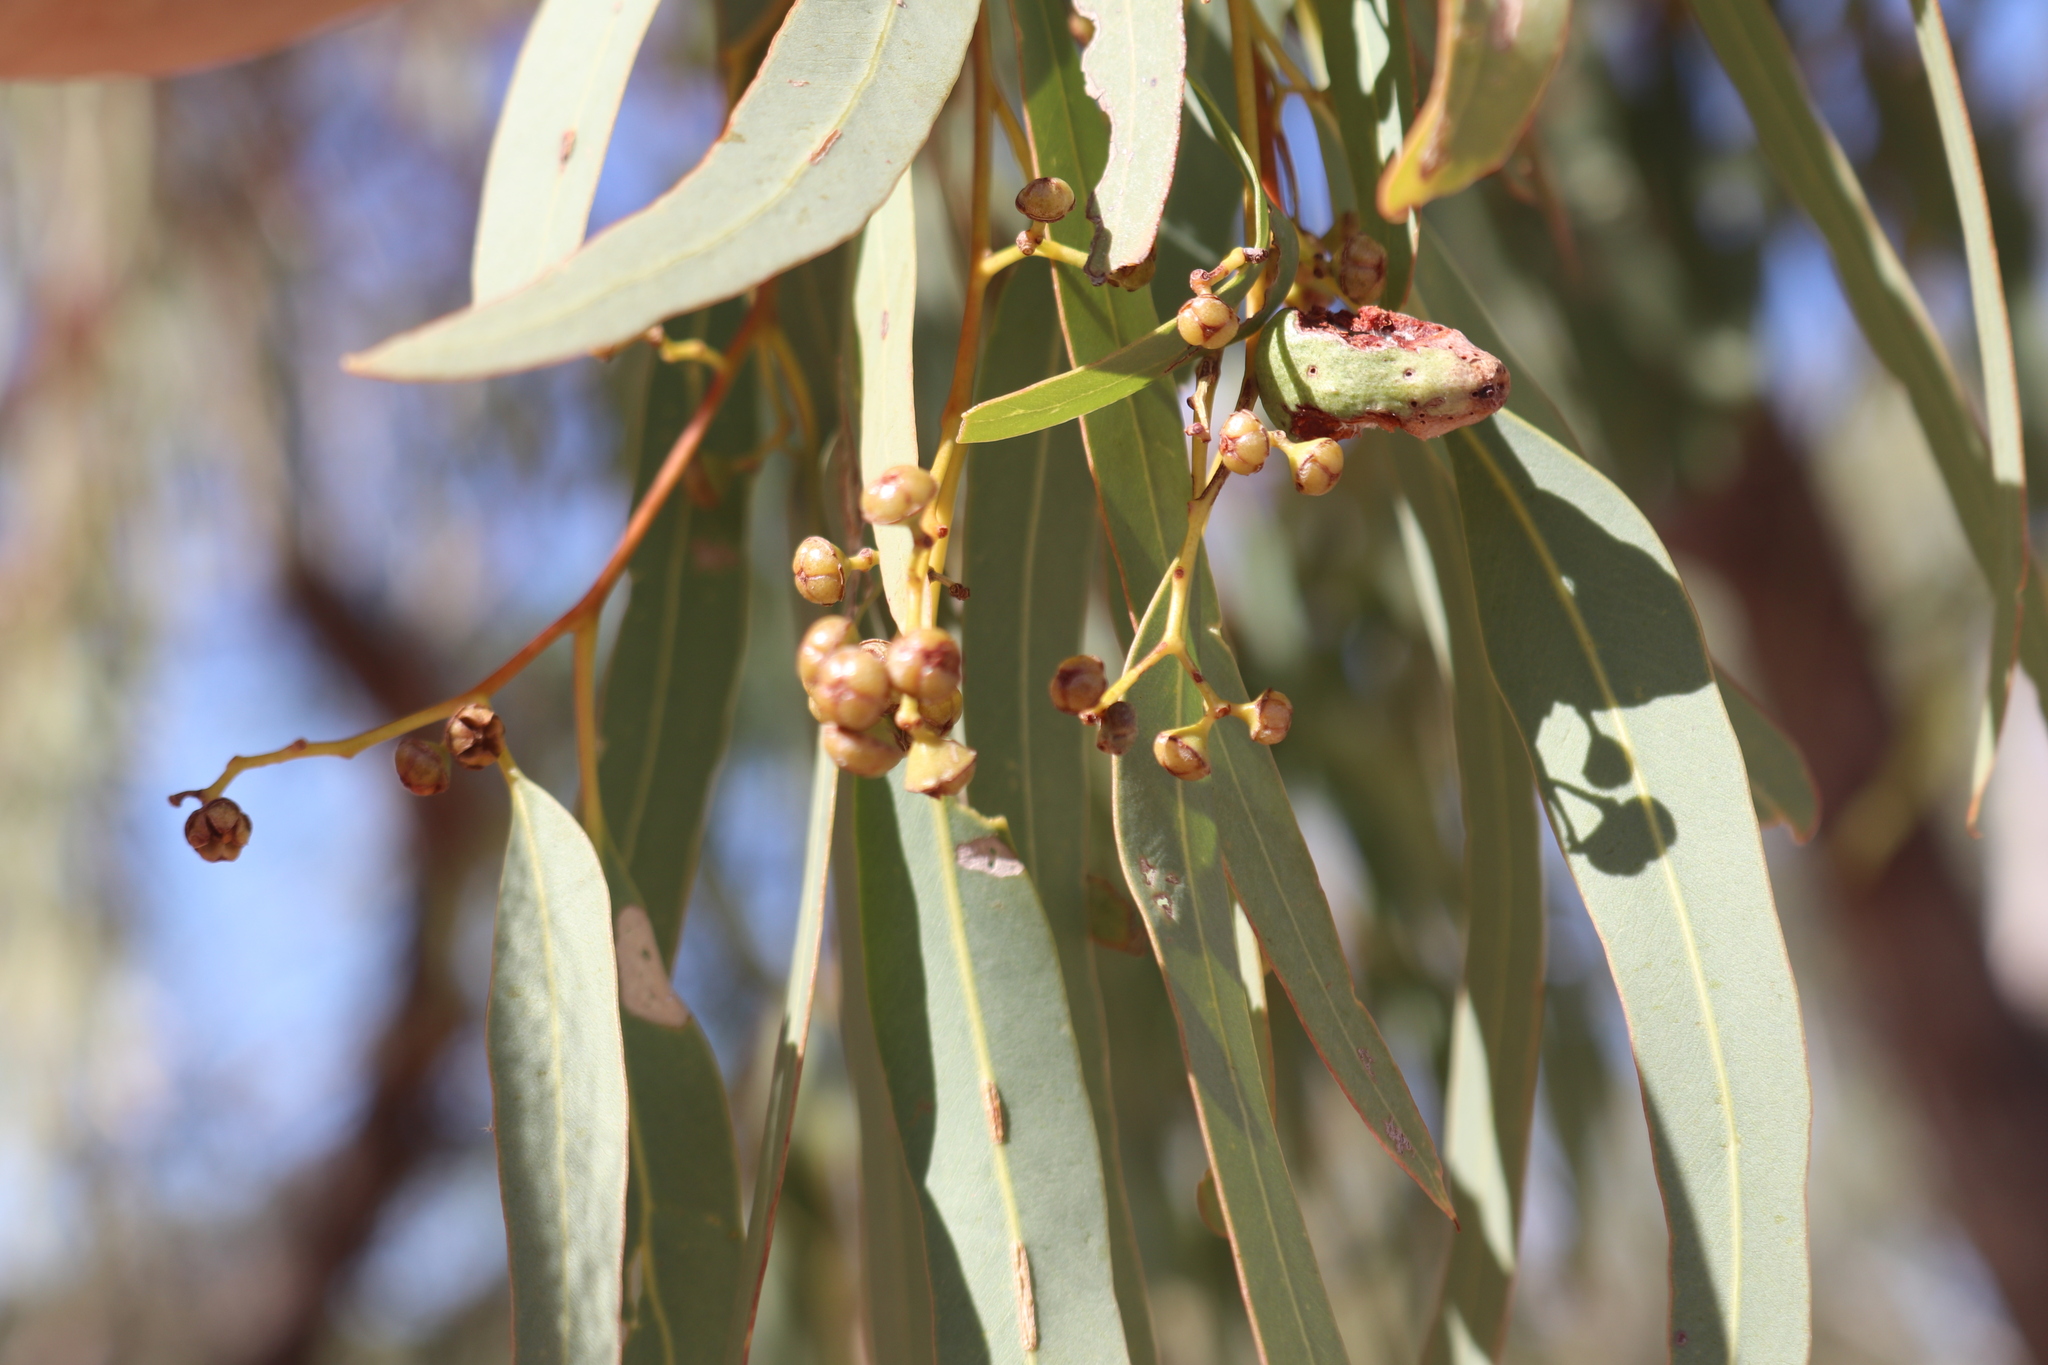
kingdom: Plantae
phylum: Tracheophyta
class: Magnoliopsida
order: Myrtales
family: Myrtaceae
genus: Eucalyptus
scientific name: Eucalyptus coolabah
